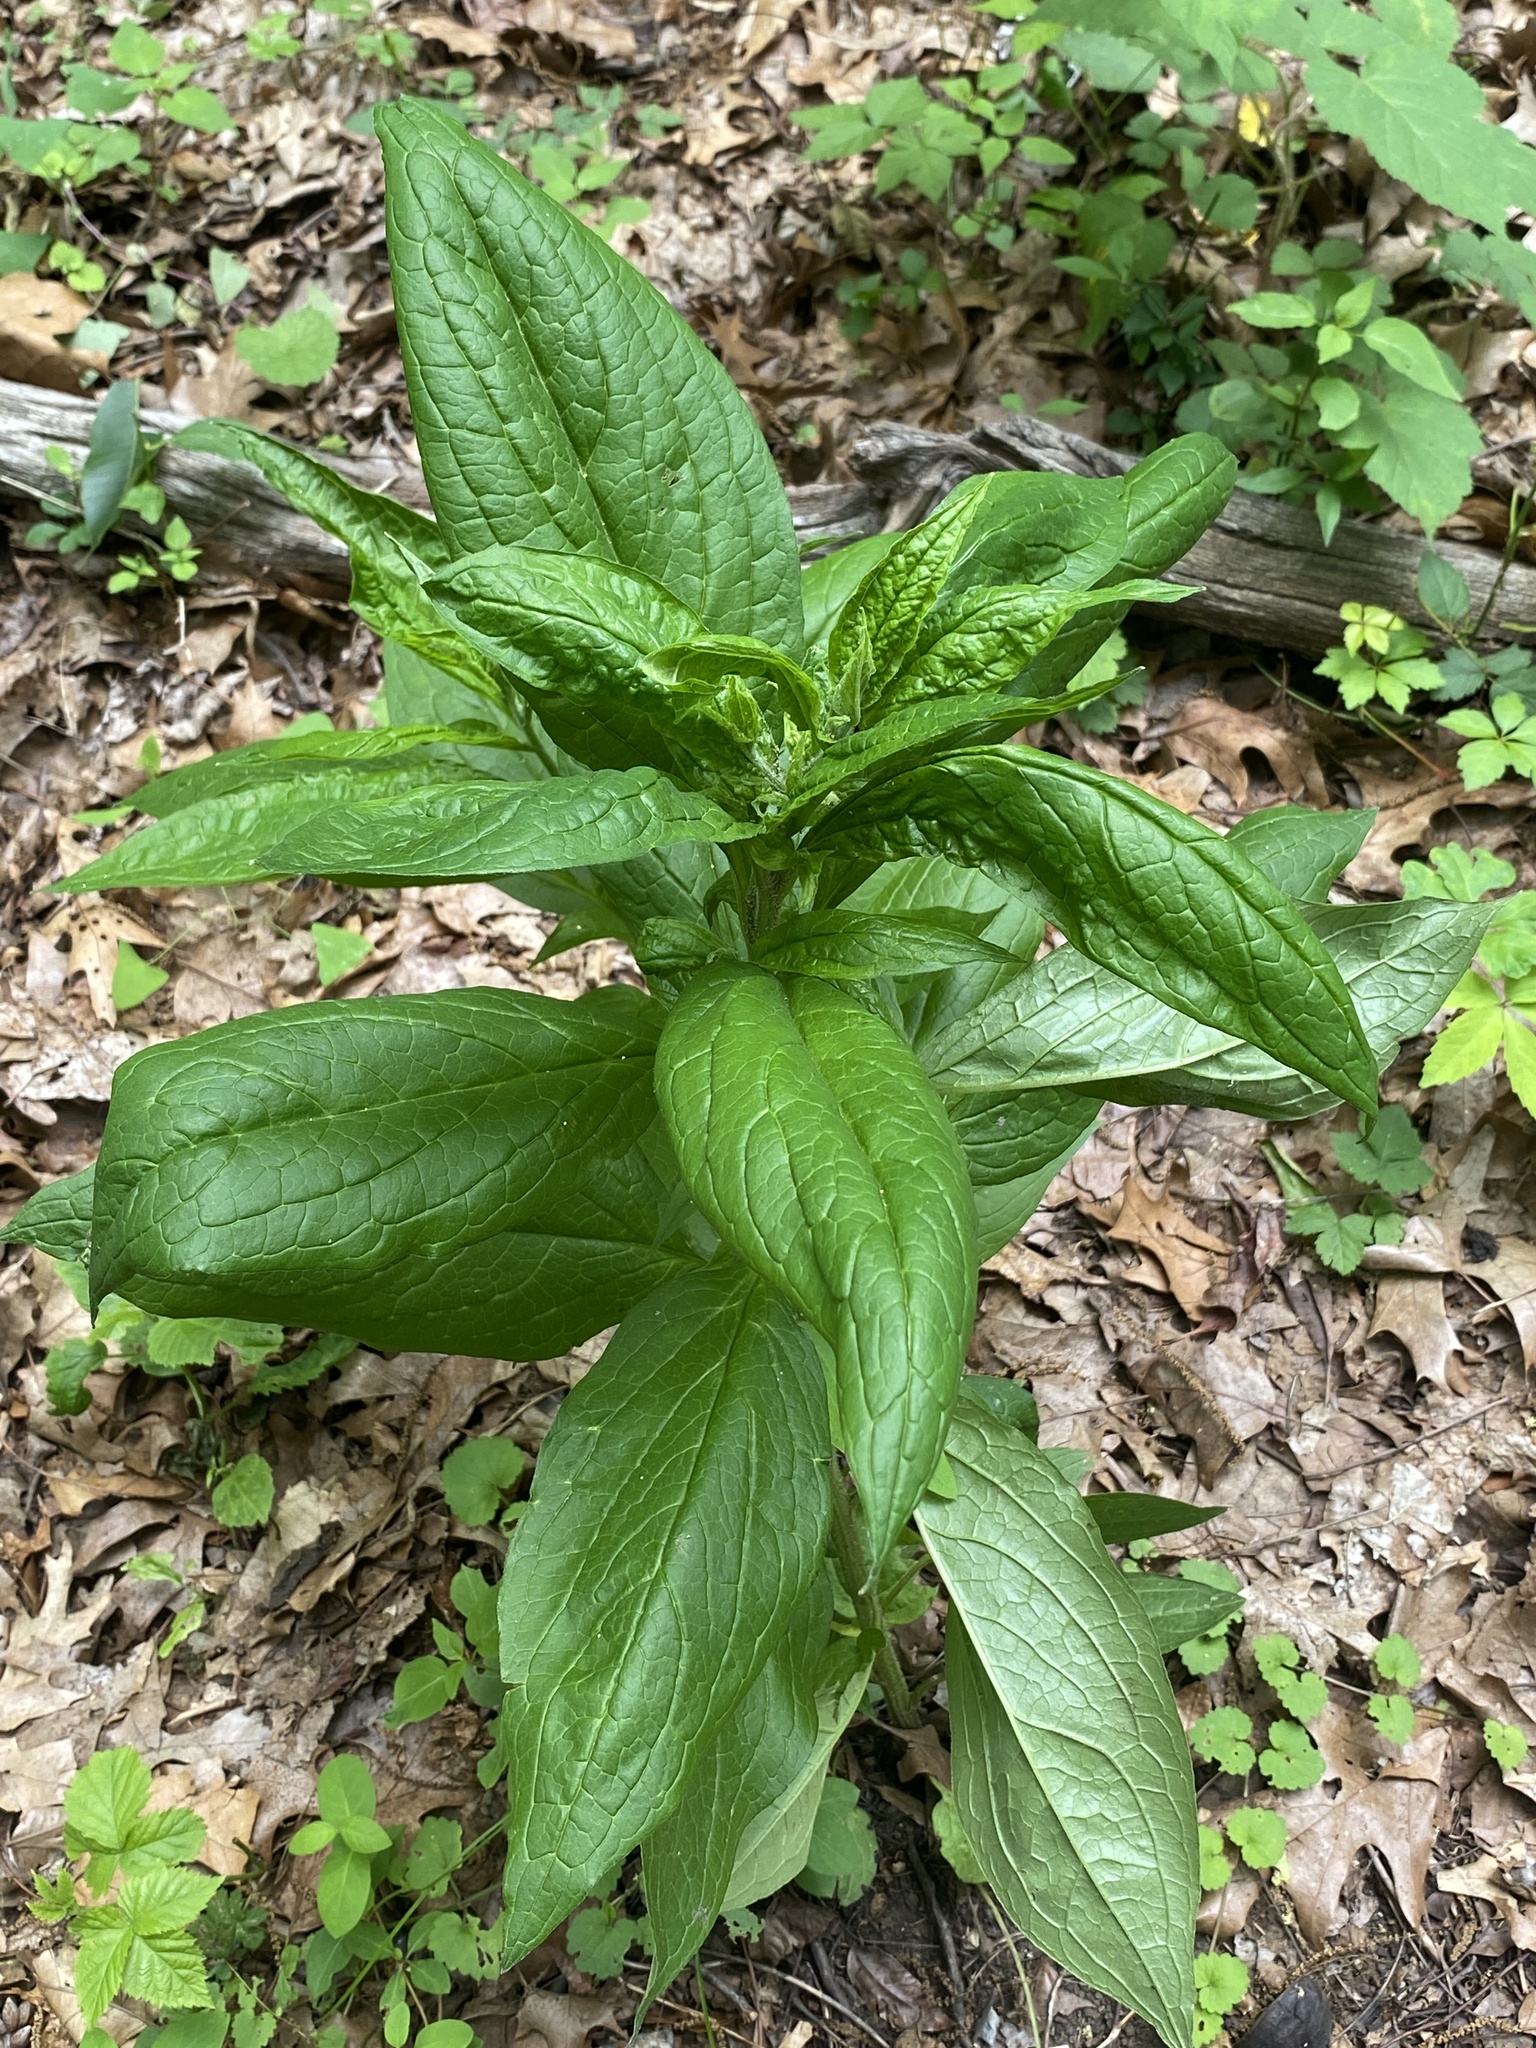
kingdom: Plantae
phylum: Tracheophyta
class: Magnoliopsida
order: Boraginales
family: Boraginaceae
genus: Hackelia
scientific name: Hackelia virginiana
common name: Beggar's-lice
